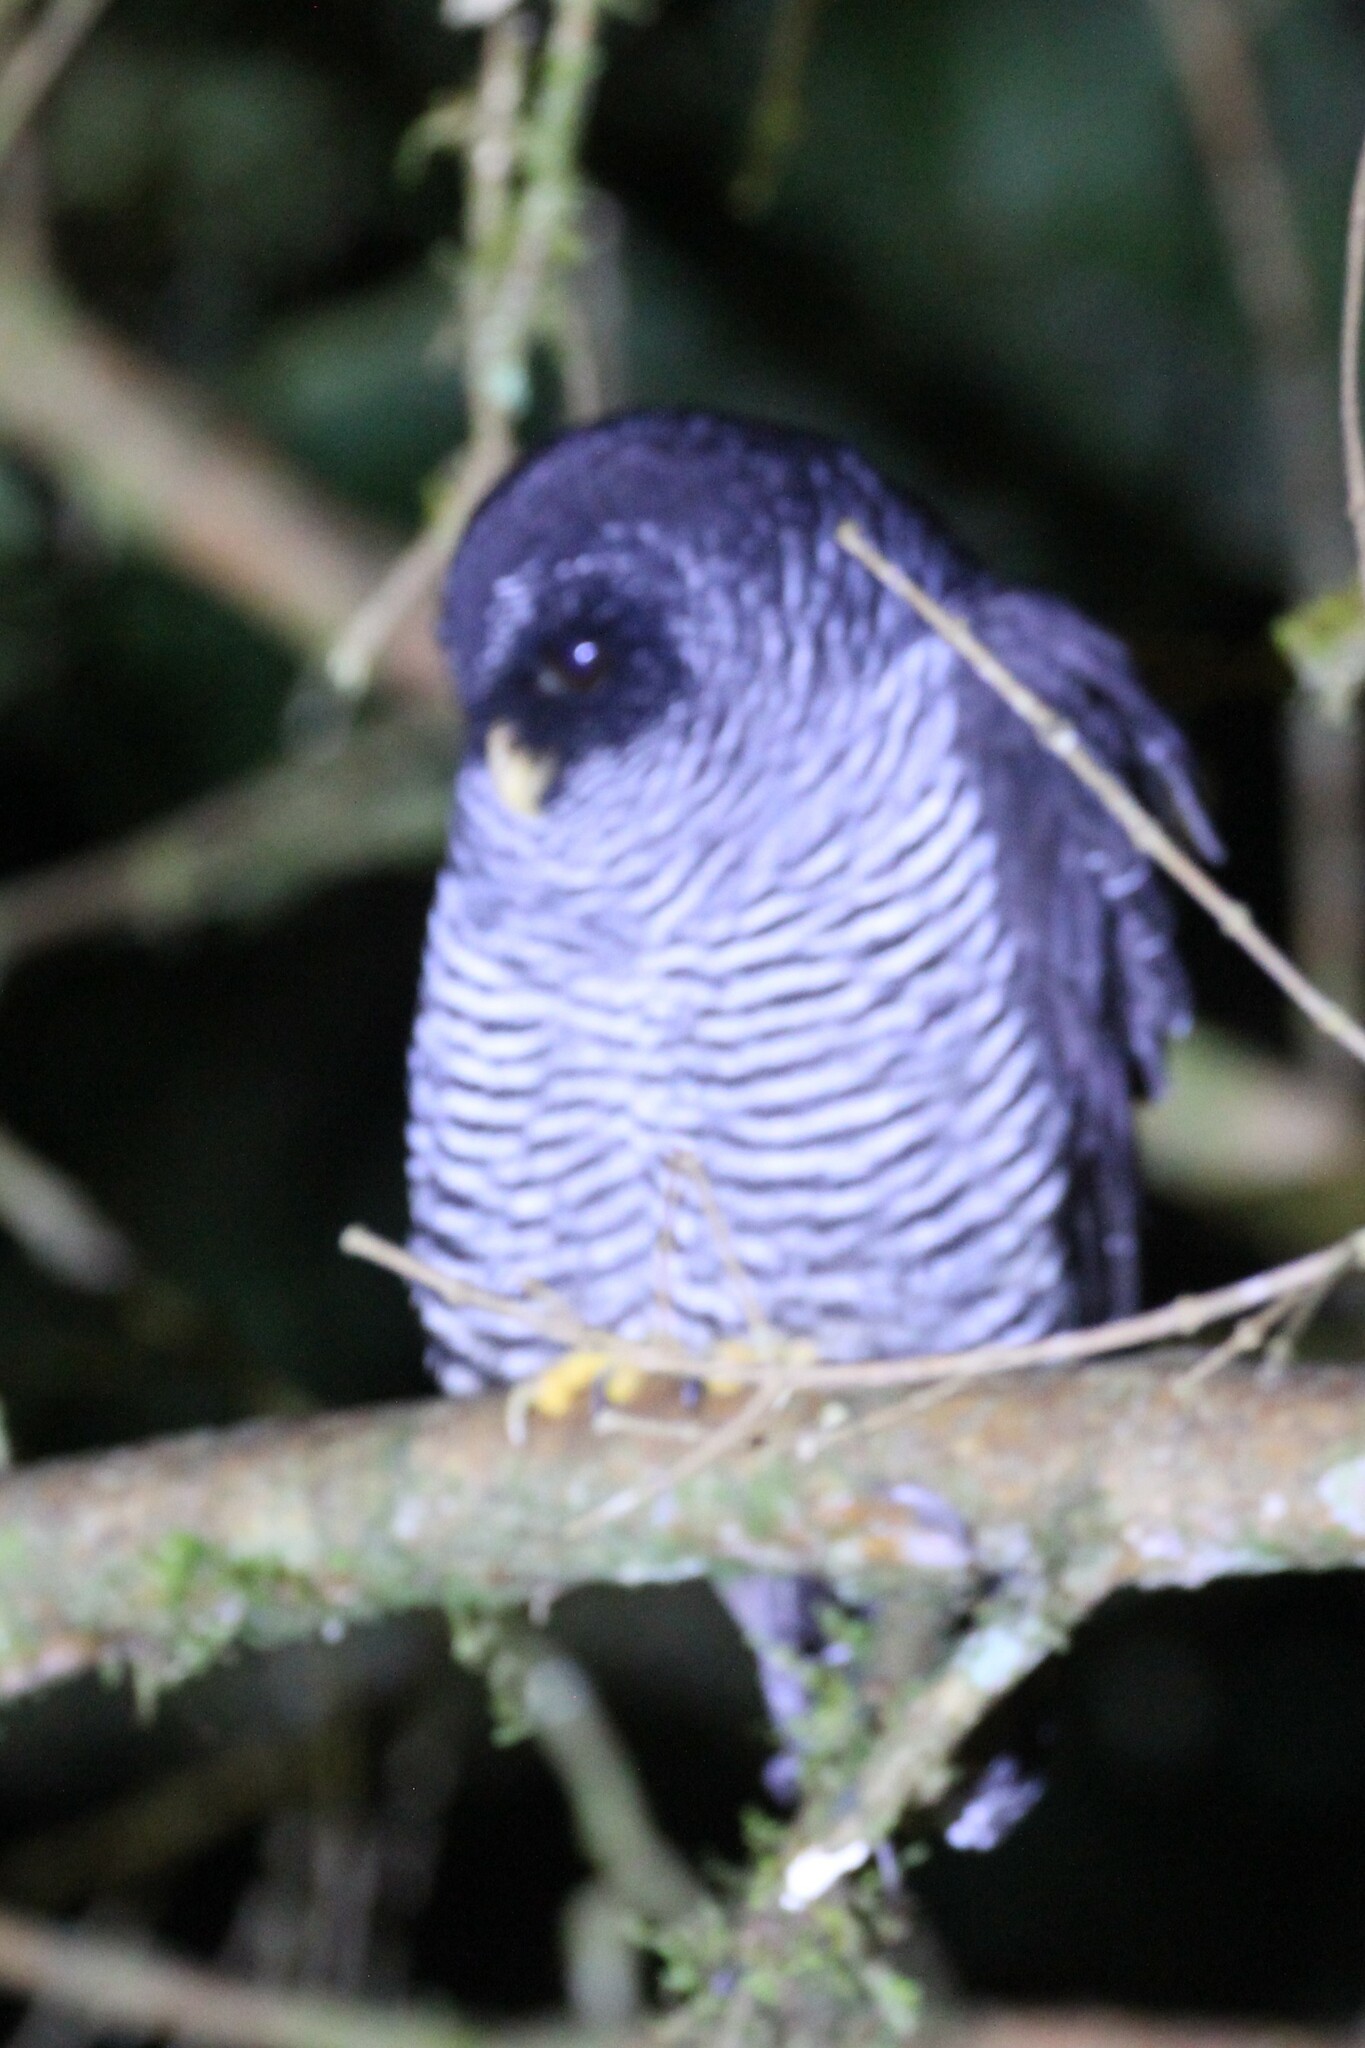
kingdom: Animalia
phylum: Chordata
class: Aves
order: Strigiformes
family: Strigidae
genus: Strix
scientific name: Strix huhula
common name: Black-banded owl
